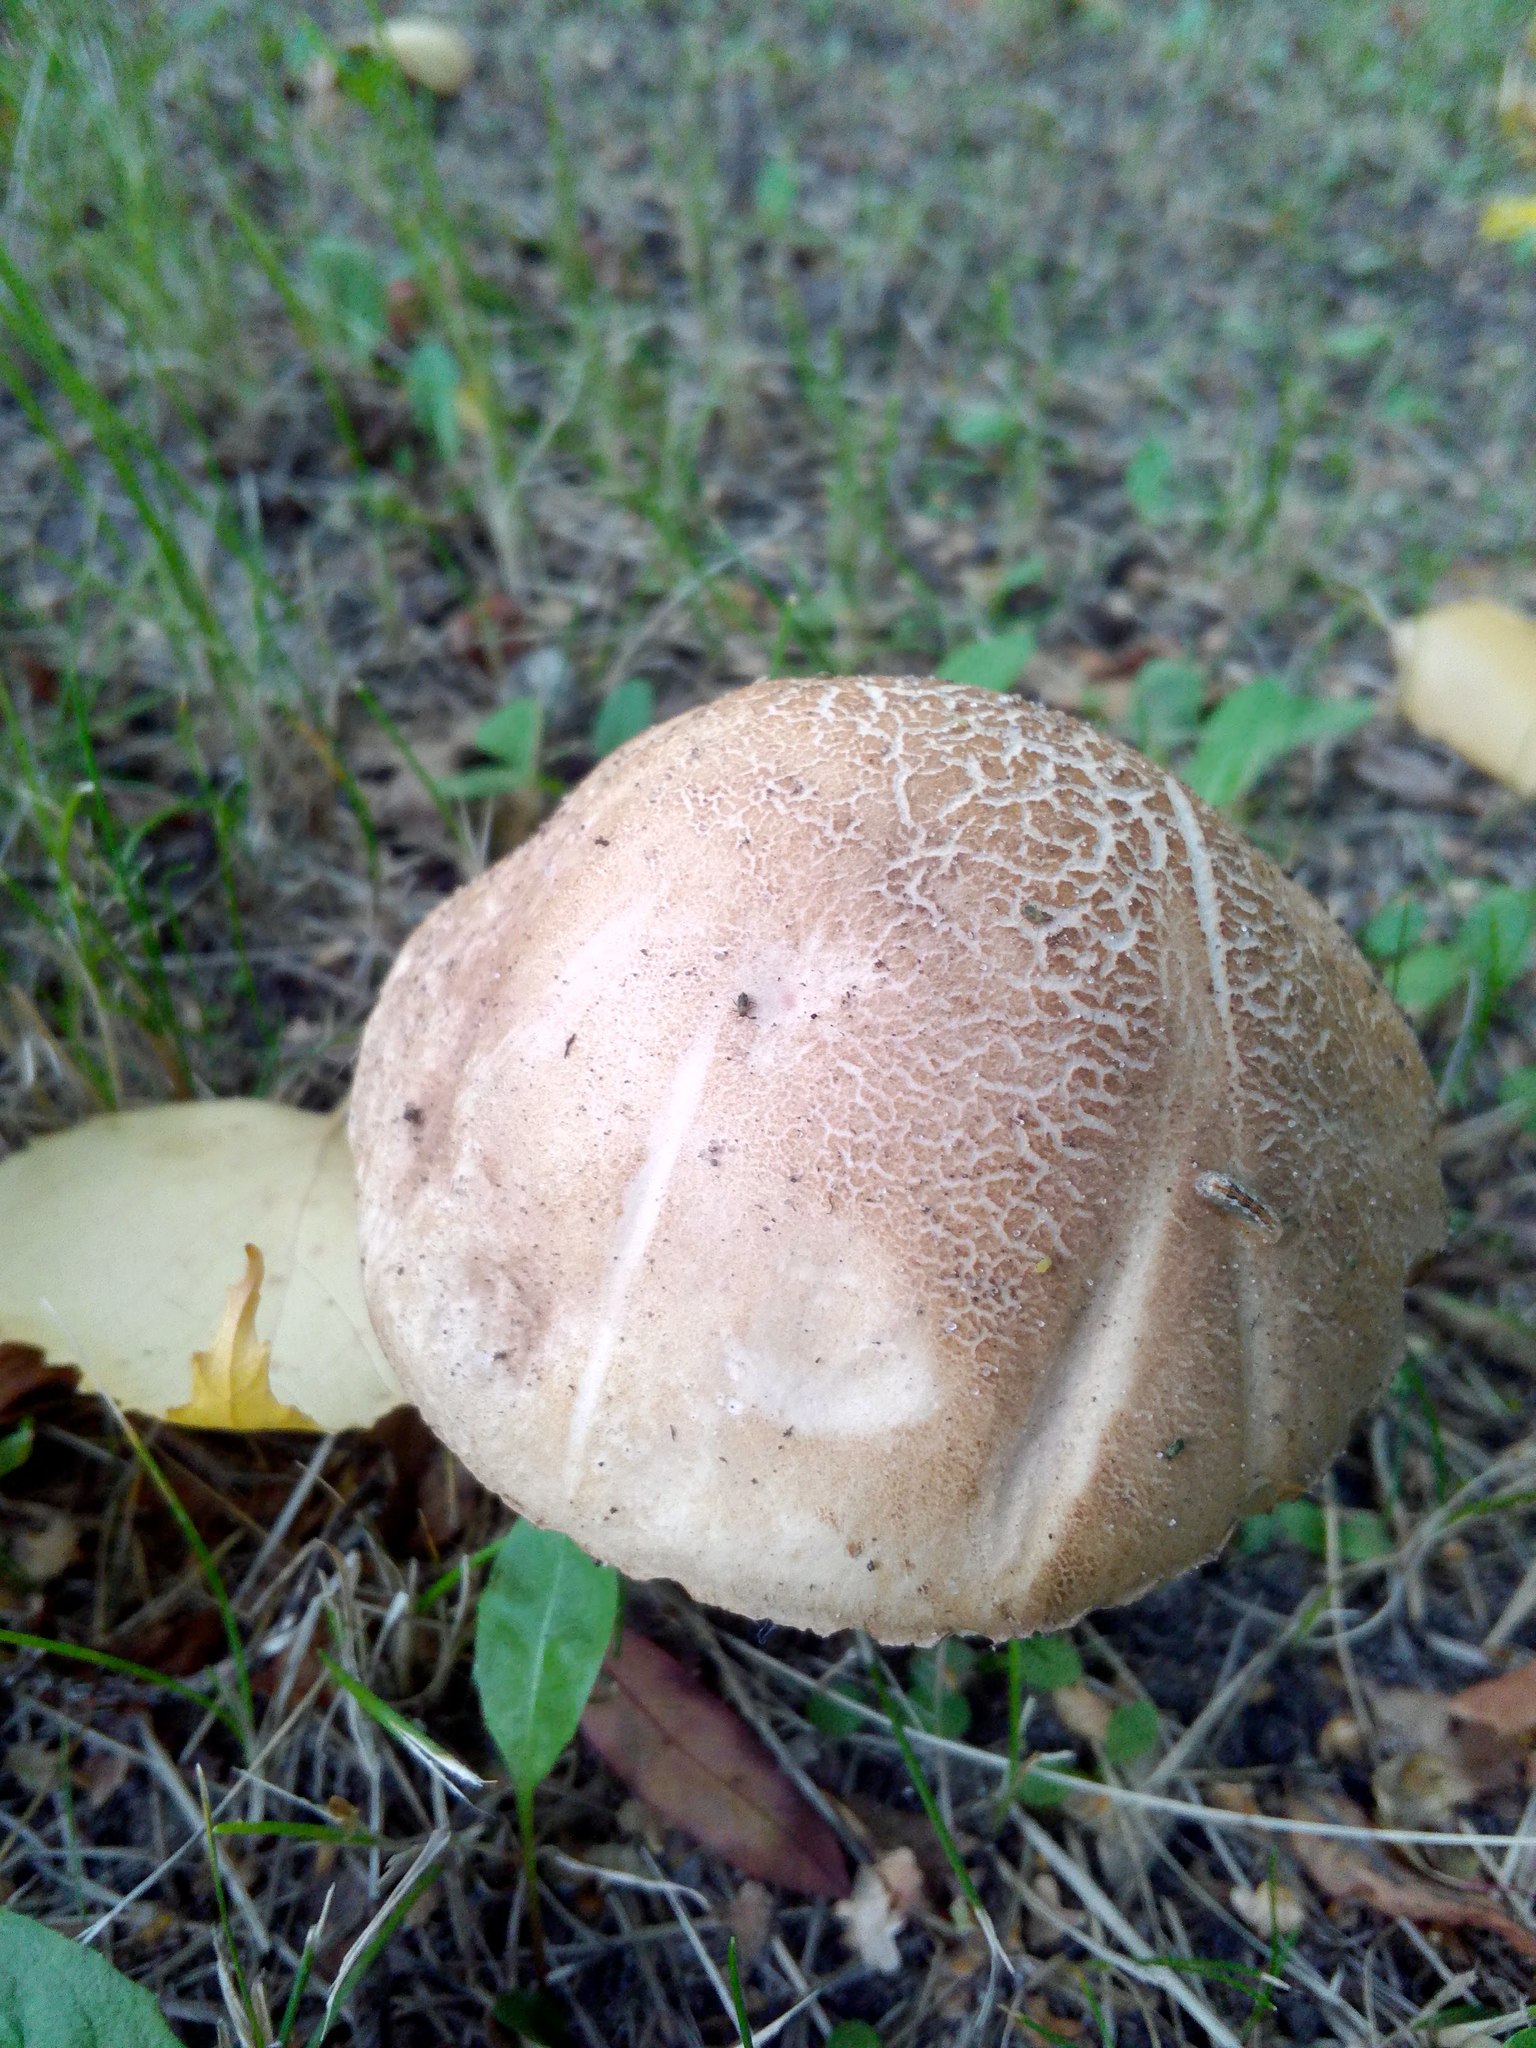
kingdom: Fungi
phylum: Basidiomycota
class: Agaricomycetes
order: Boletales
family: Boletaceae
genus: Leccinum
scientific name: Leccinum scabrum
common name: Blushing bolete
